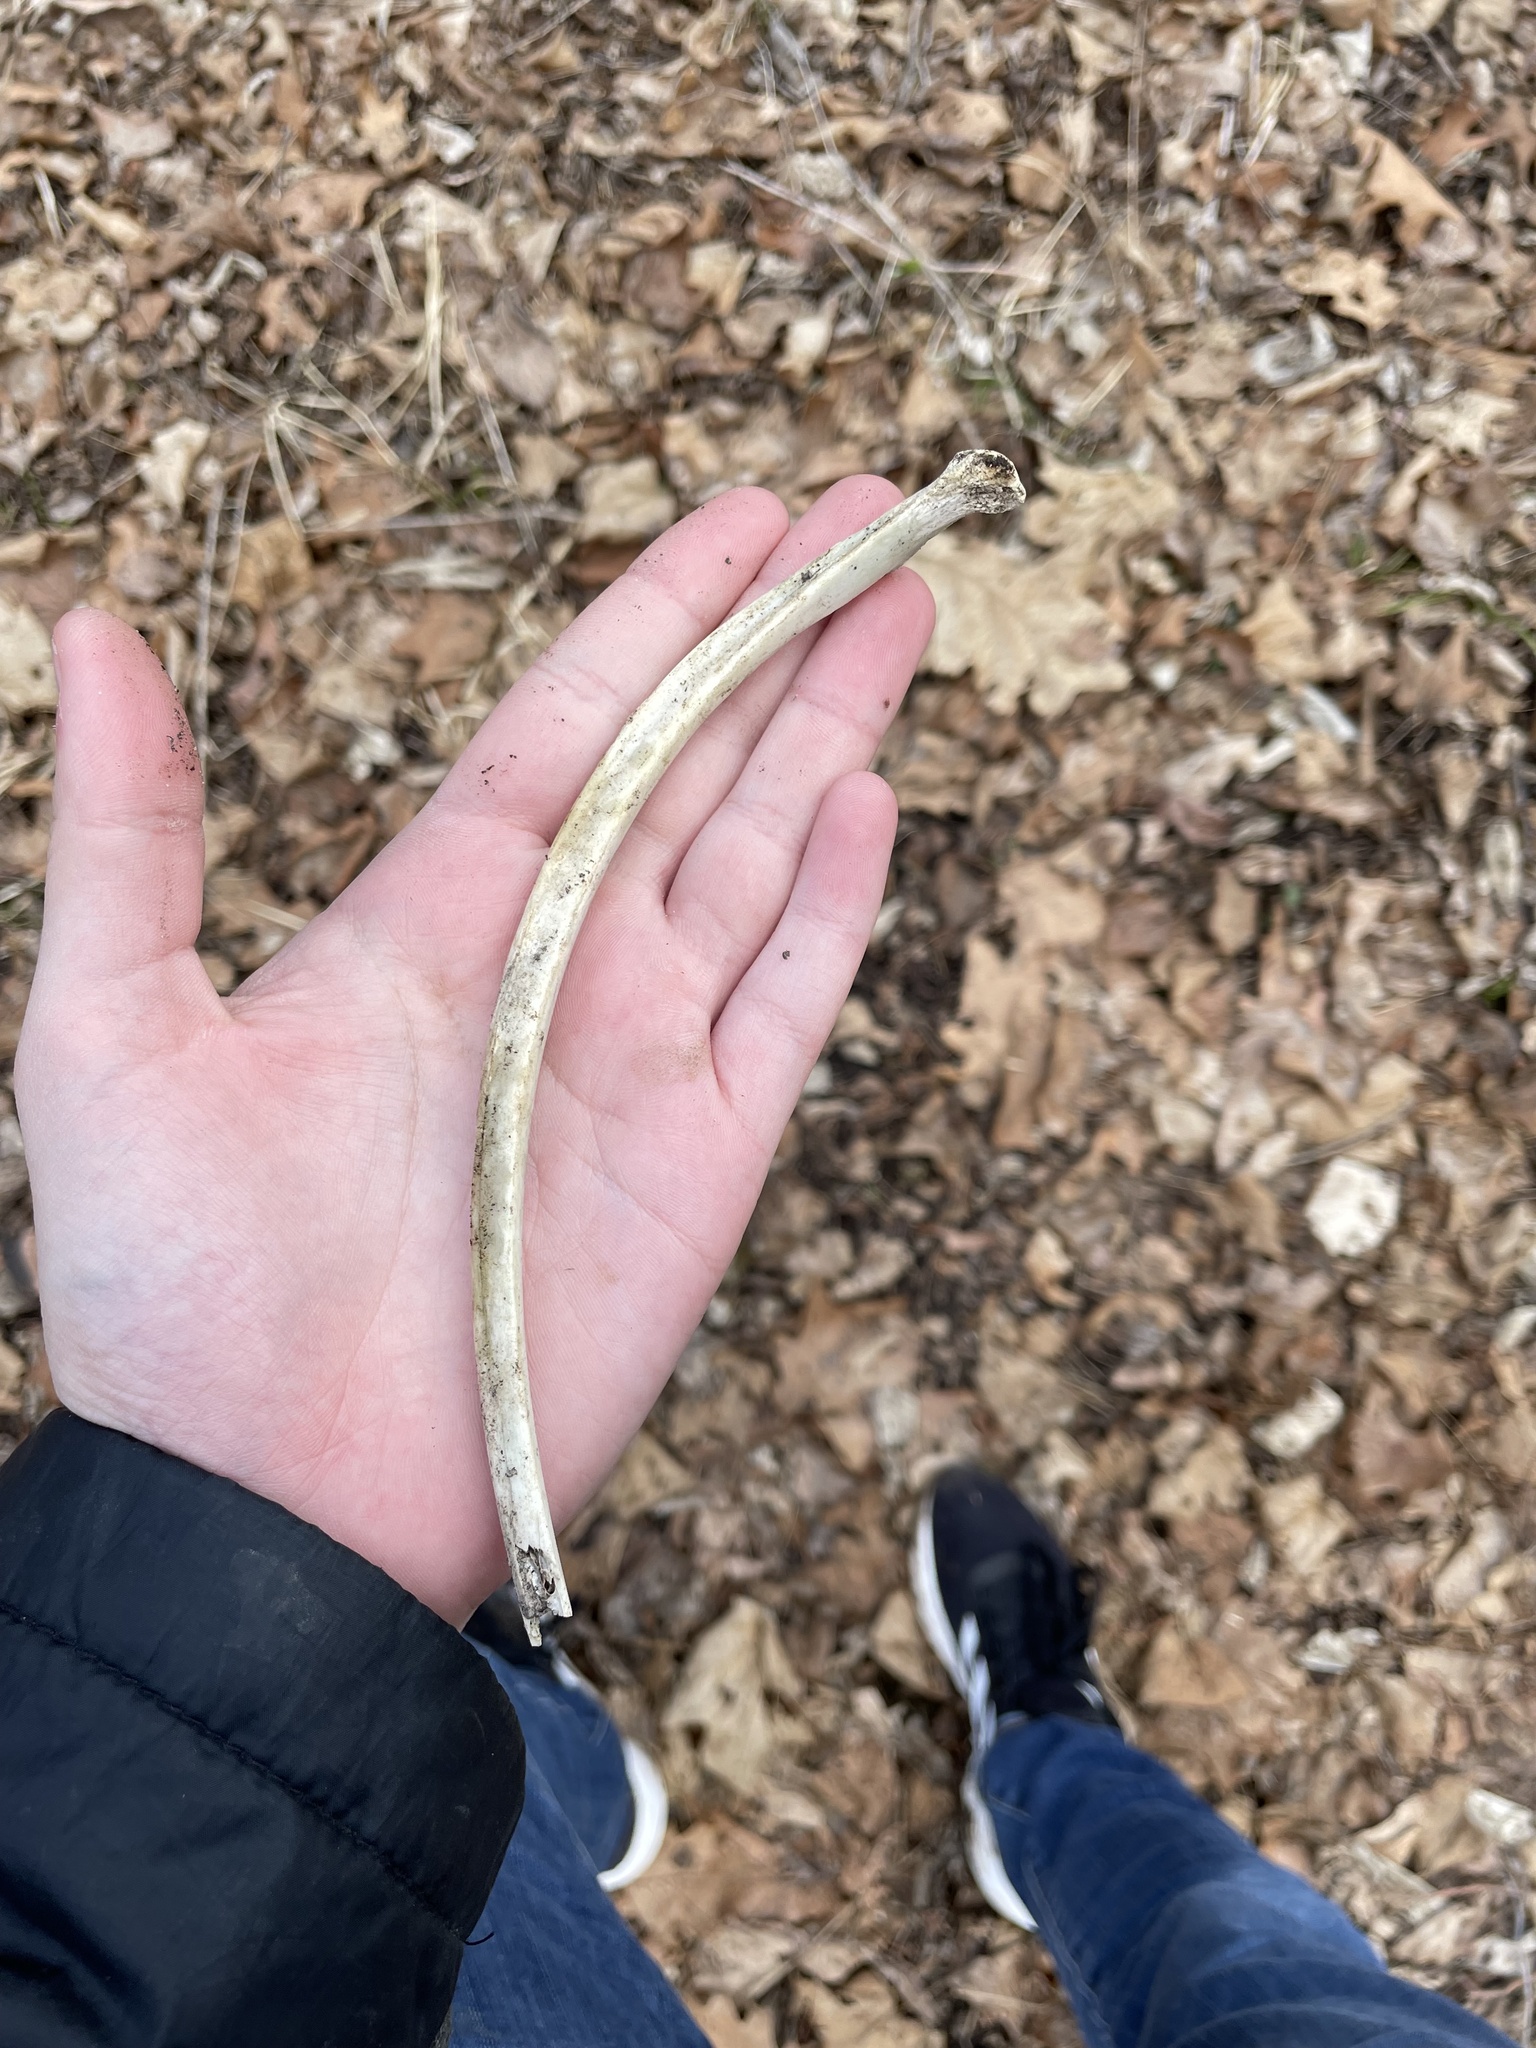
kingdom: Animalia
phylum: Chordata
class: Mammalia
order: Artiodactyla
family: Cervidae
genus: Odocoileus
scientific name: Odocoileus virginianus
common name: White-tailed deer
